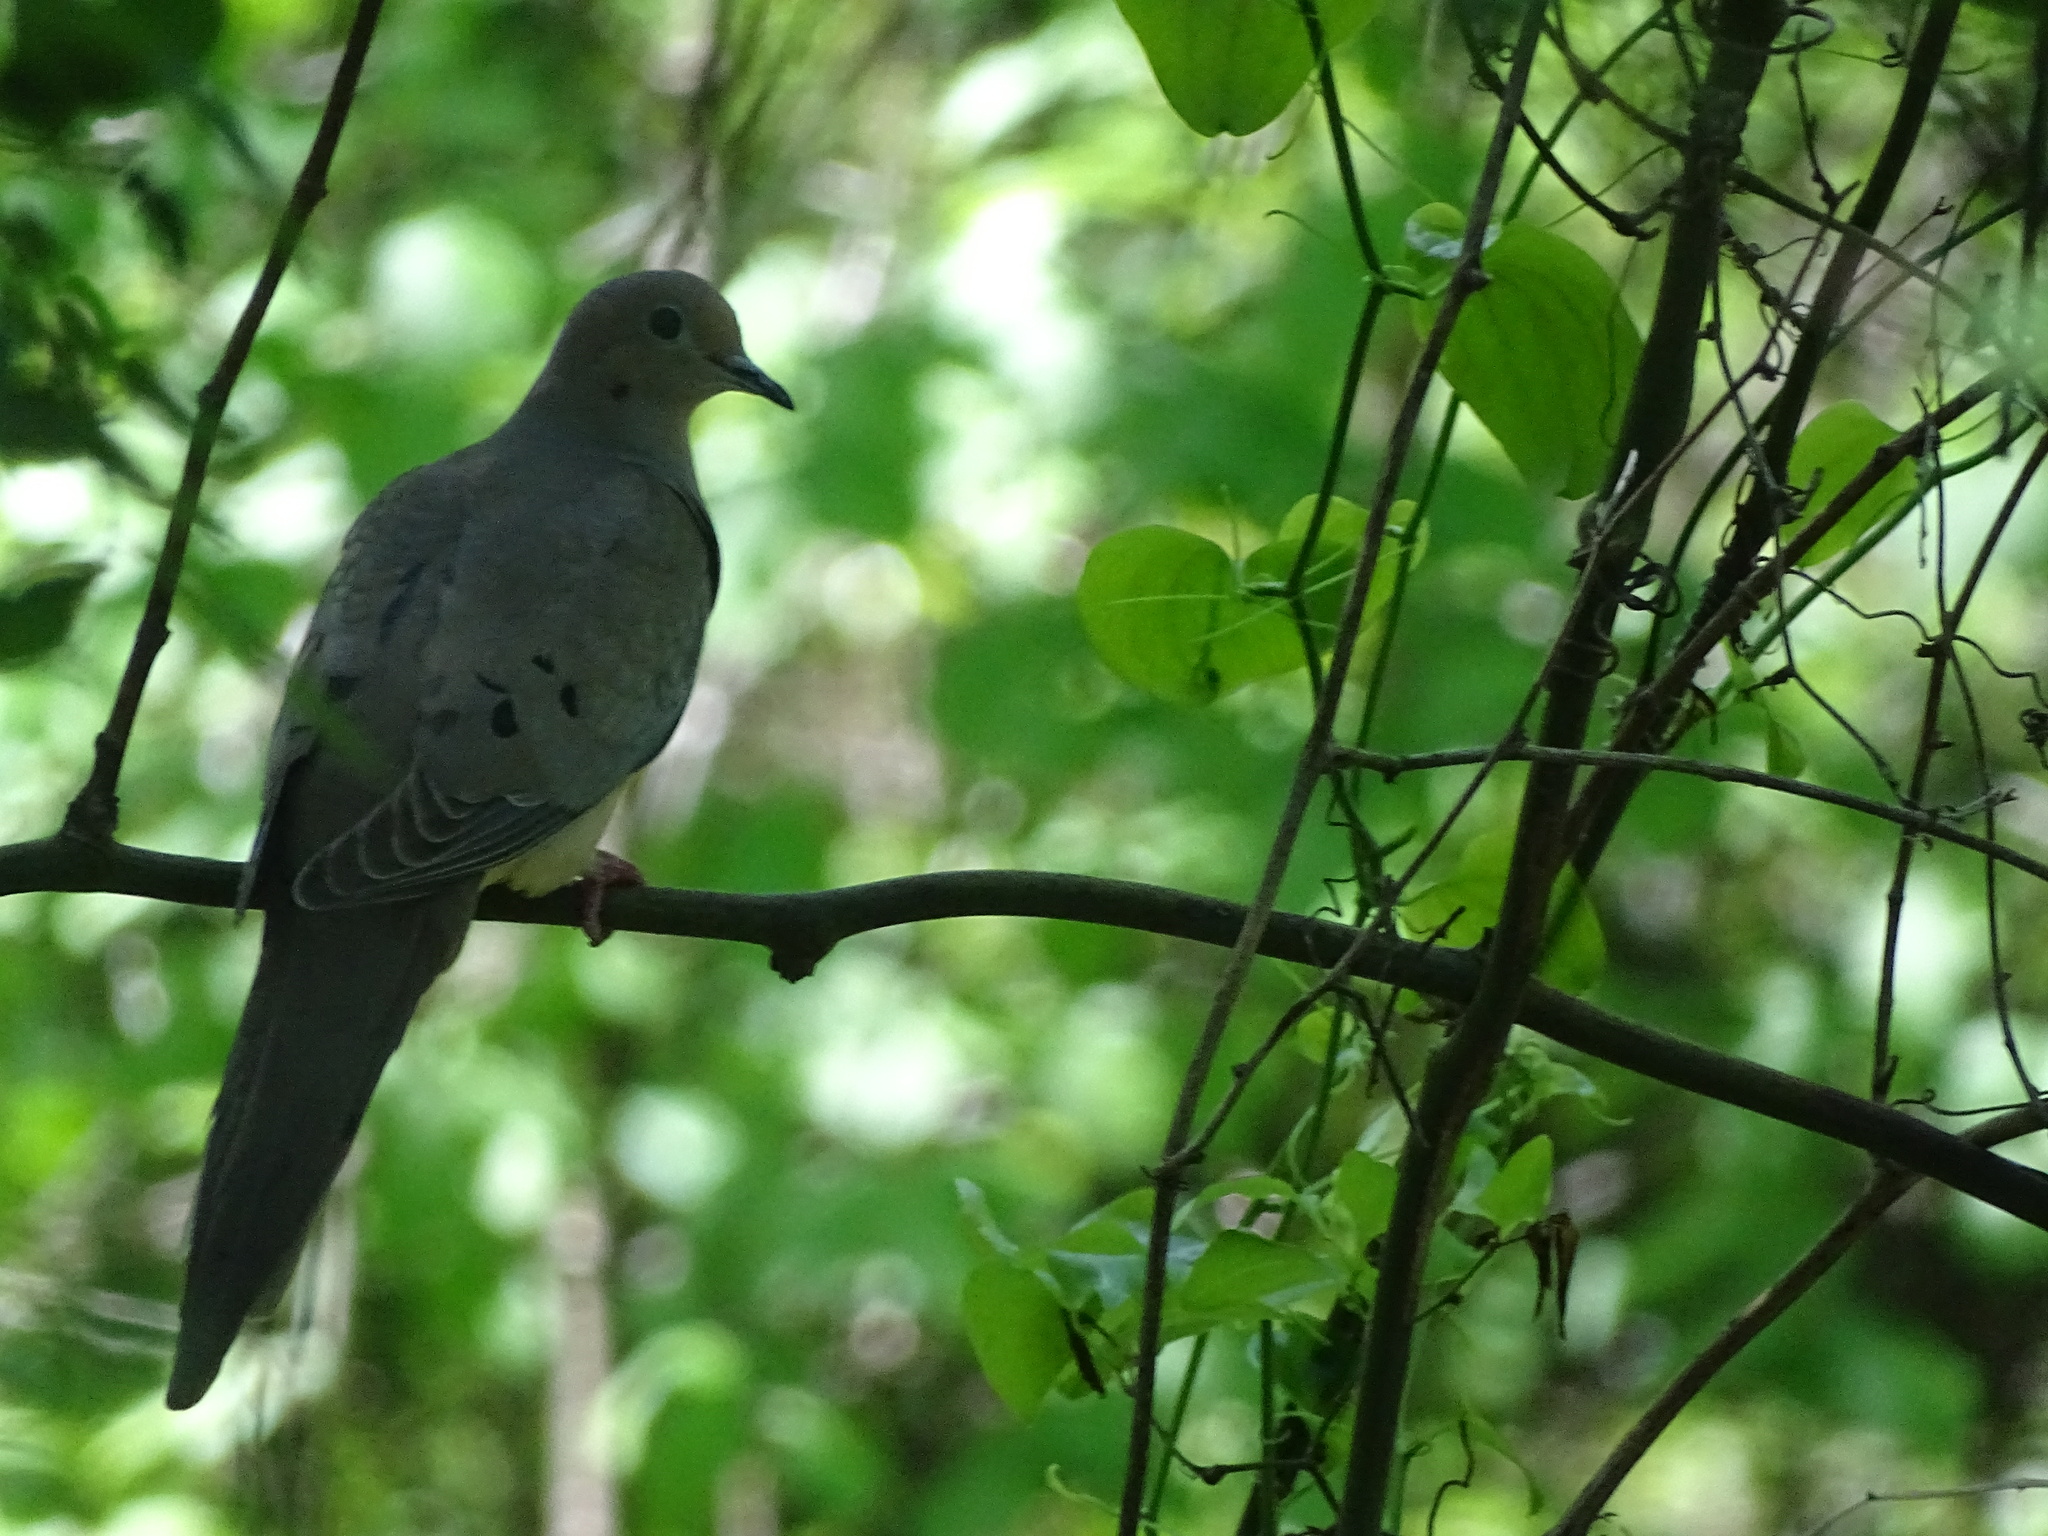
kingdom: Animalia
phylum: Chordata
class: Aves
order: Columbiformes
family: Columbidae
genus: Zenaida
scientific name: Zenaida macroura
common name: Mourning dove
